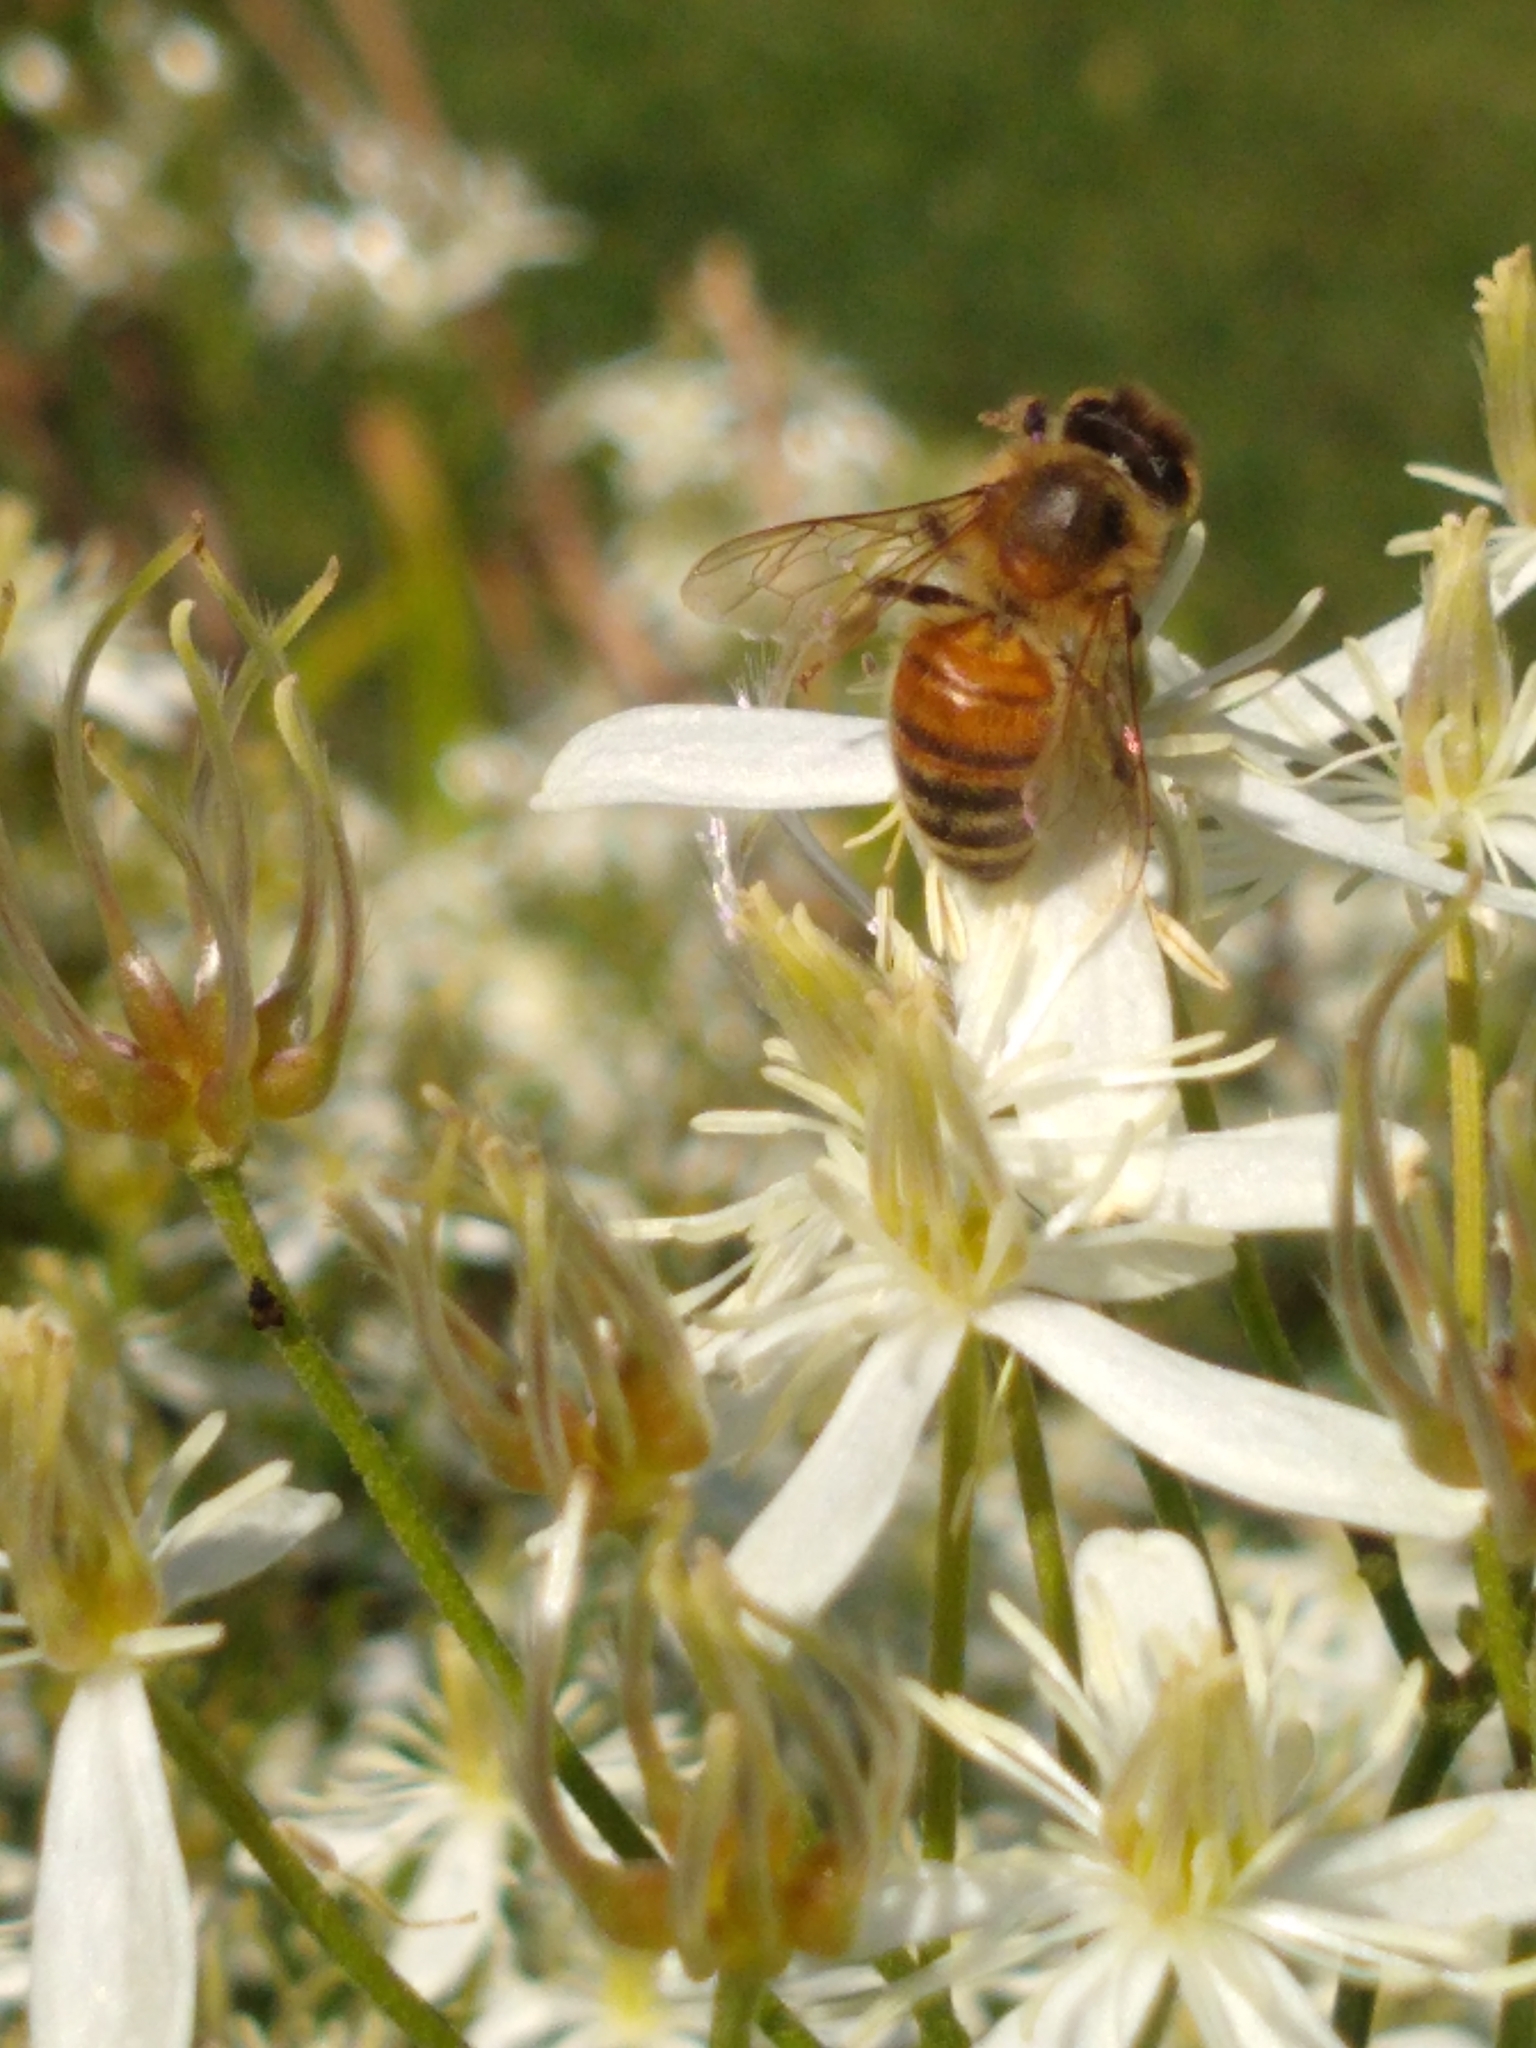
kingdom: Animalia
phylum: Arthropoda
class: Insecta
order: Hymenoptera
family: Apidae
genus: Apis
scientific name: Apis mellifera
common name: Honey bee
